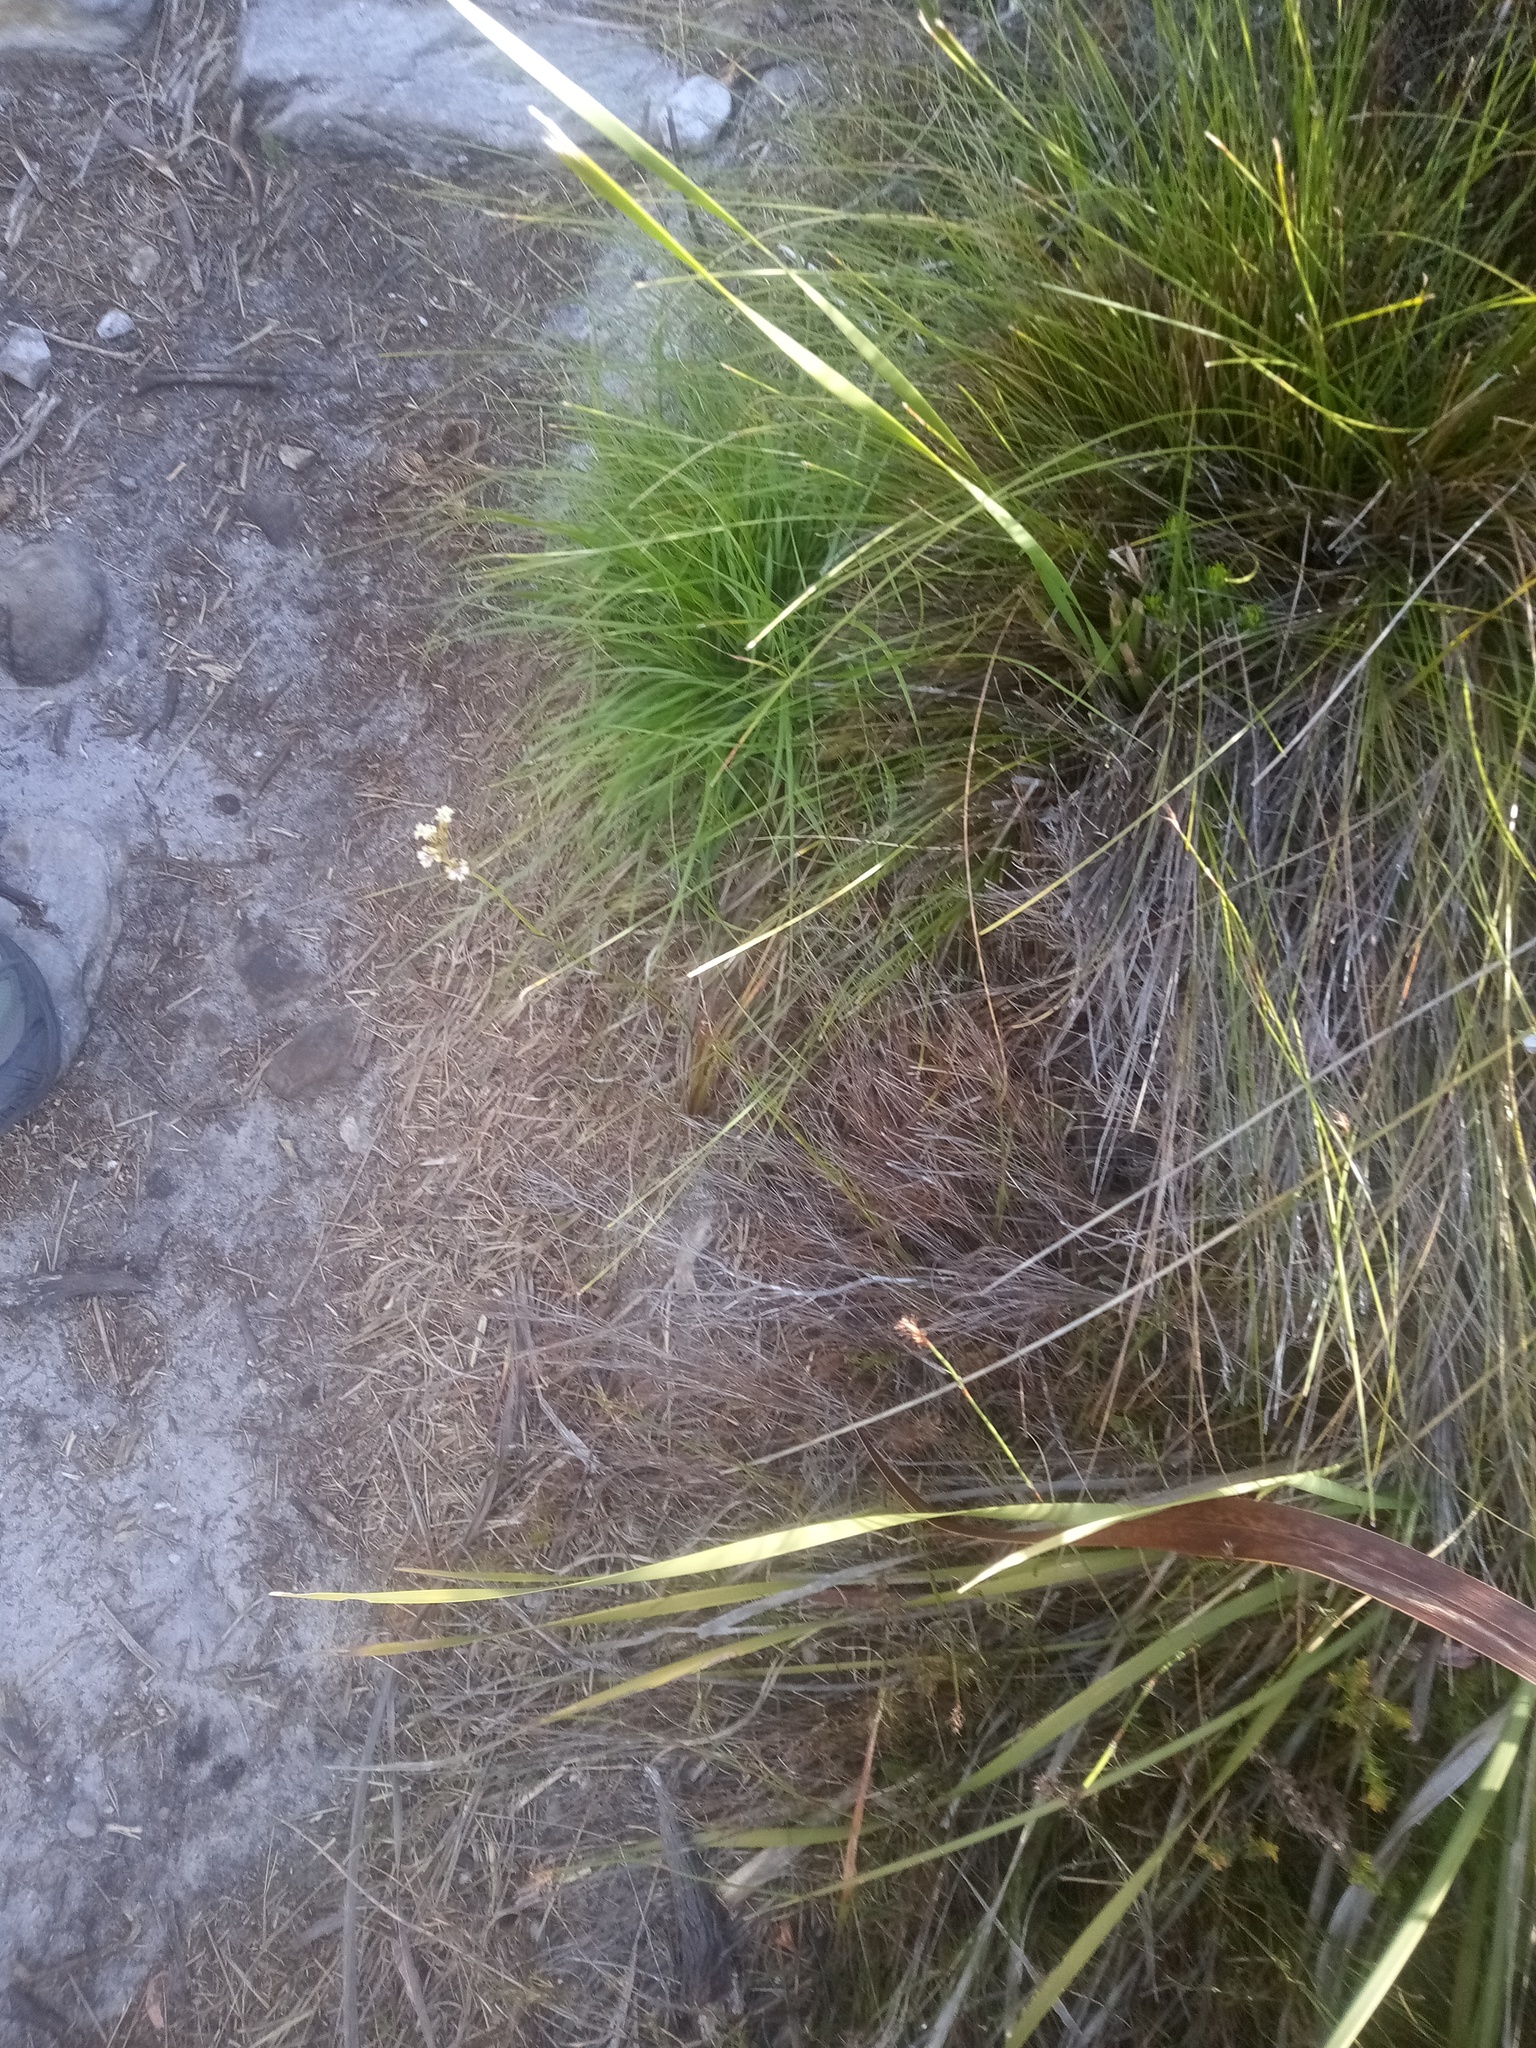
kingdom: Plantae
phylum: Tracheophyta
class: Liliopsida
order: Asparagales
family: Iridaceae
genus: Tritoniopsis
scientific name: Tritoniopsis unguicularis
